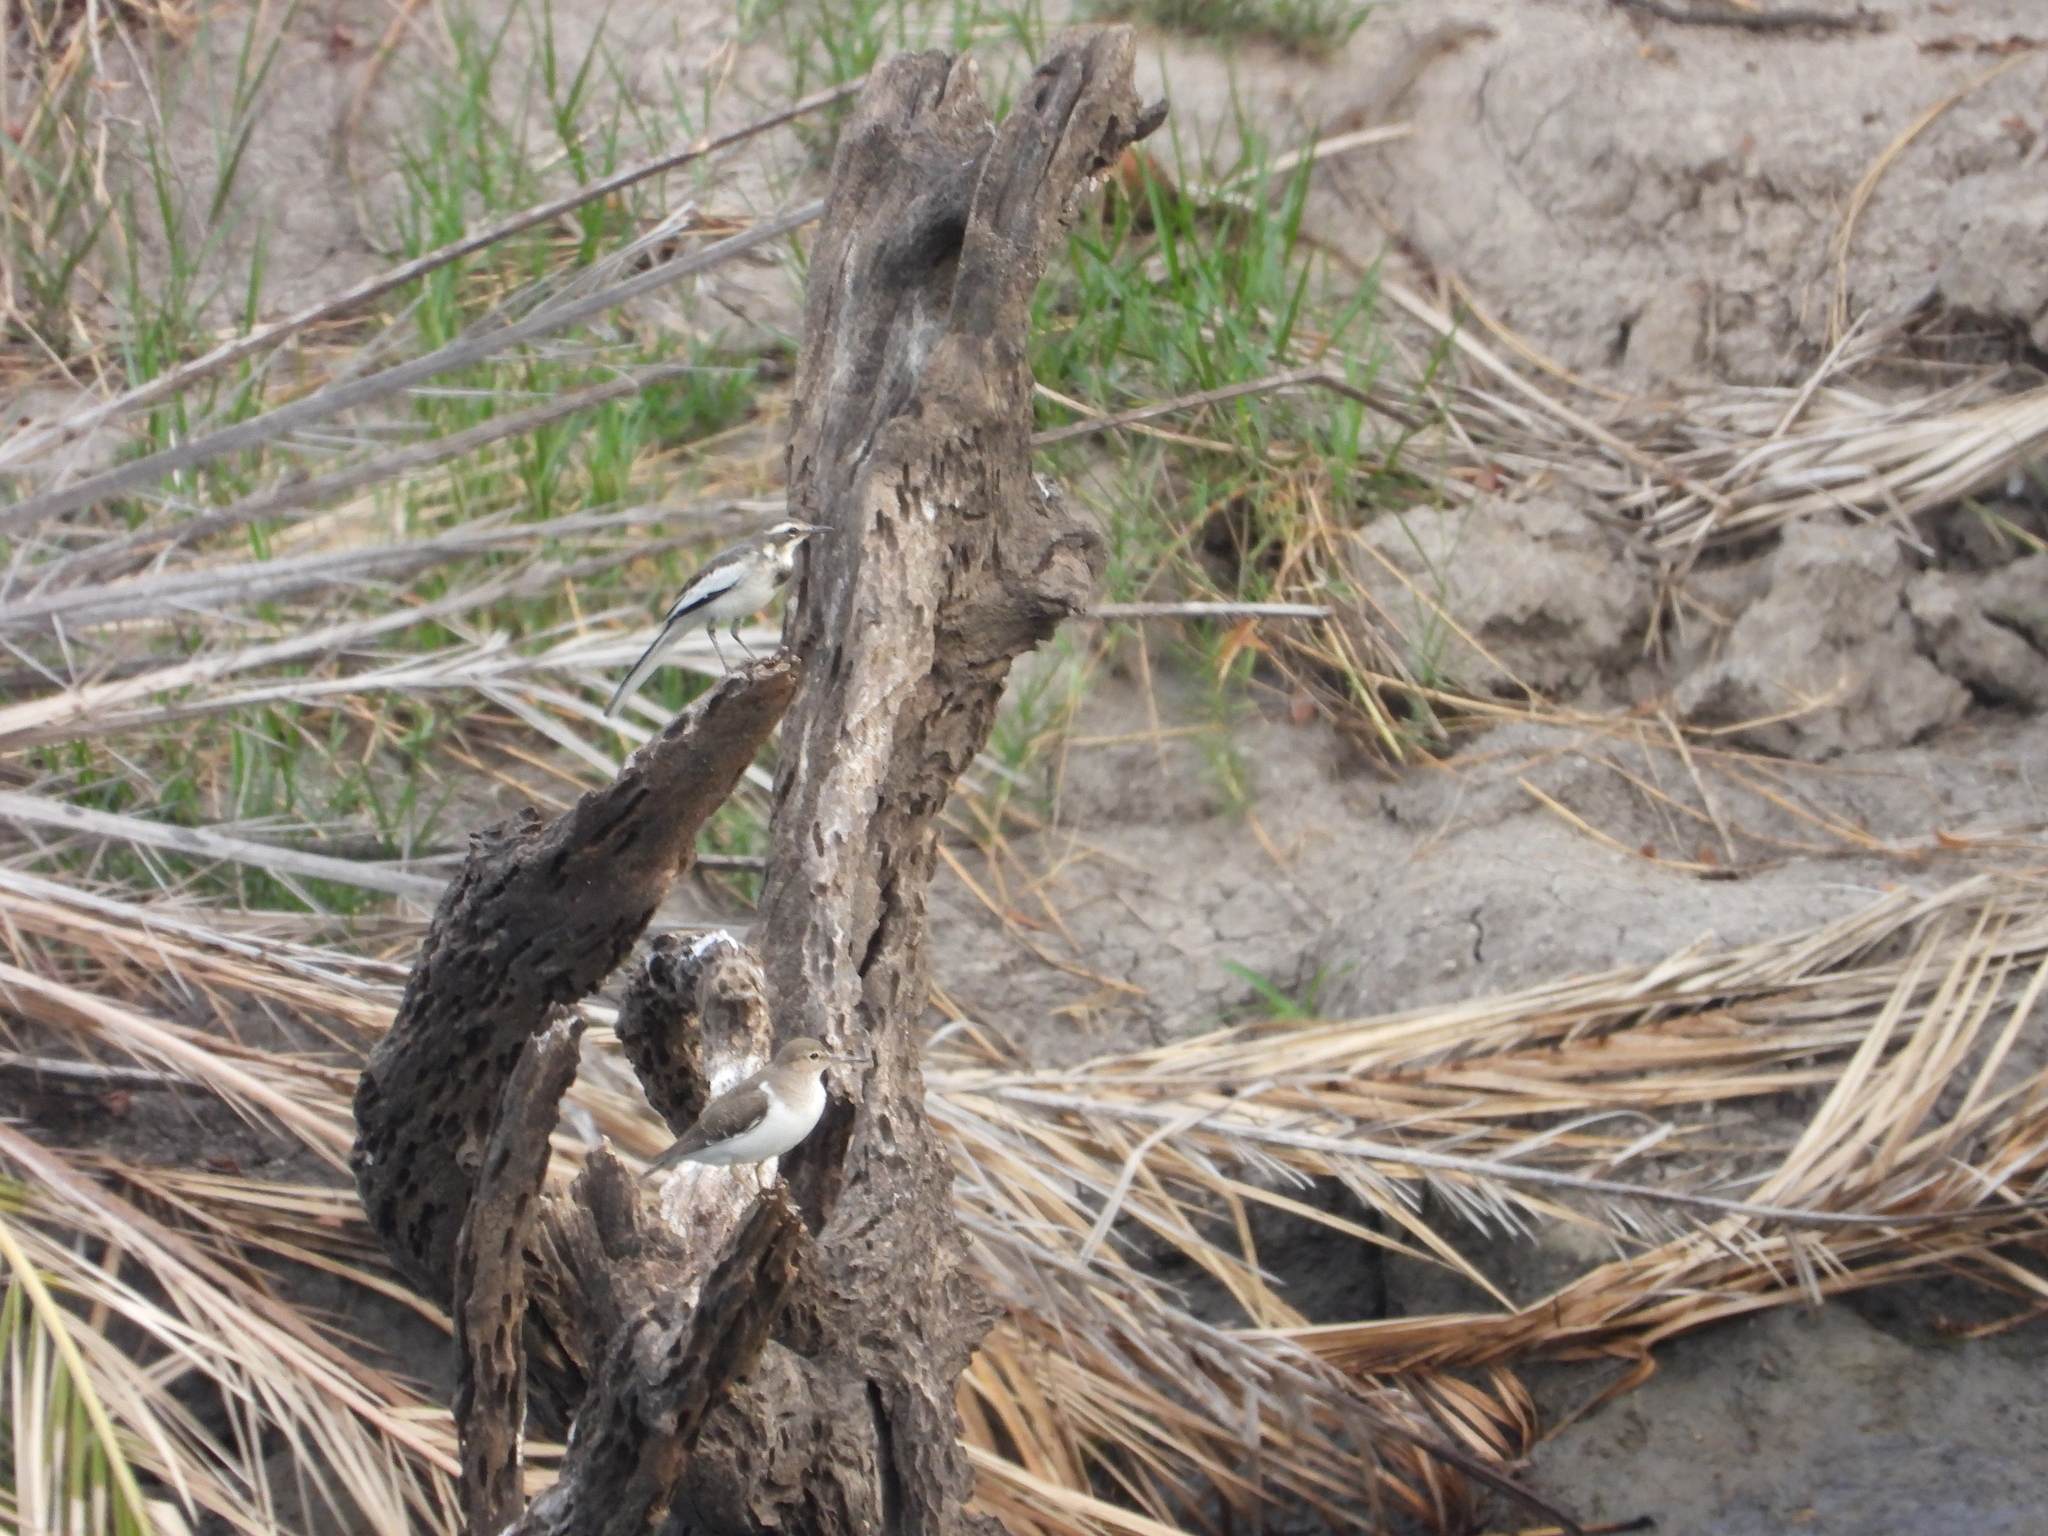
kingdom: Animalia
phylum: Chordata
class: Aves
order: Passeriformes
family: Motacillidae
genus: Motacilla
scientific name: Motacilla aguimp
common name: African pied wagtail
